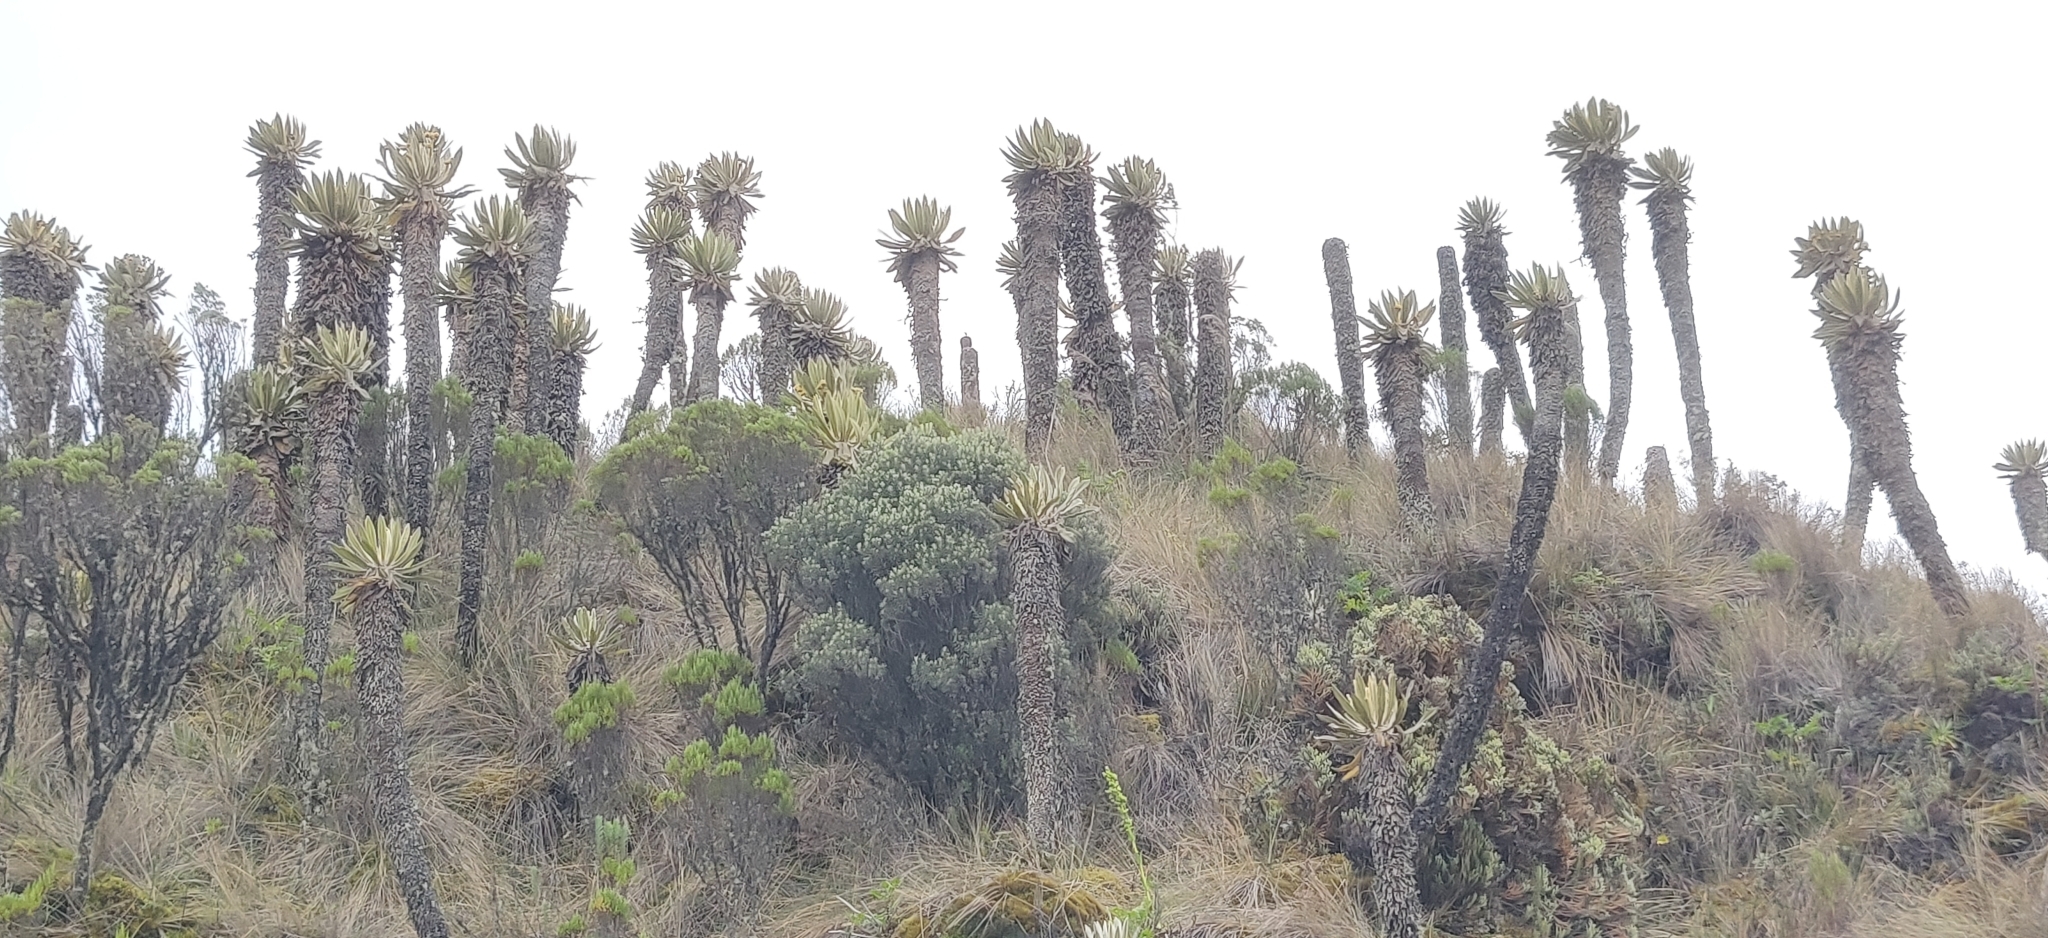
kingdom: Plantae
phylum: Tracheophyta
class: Magnoliopsida
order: Asterales
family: Asteraceae
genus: Espeletia
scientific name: Espeletia hartwegiana
